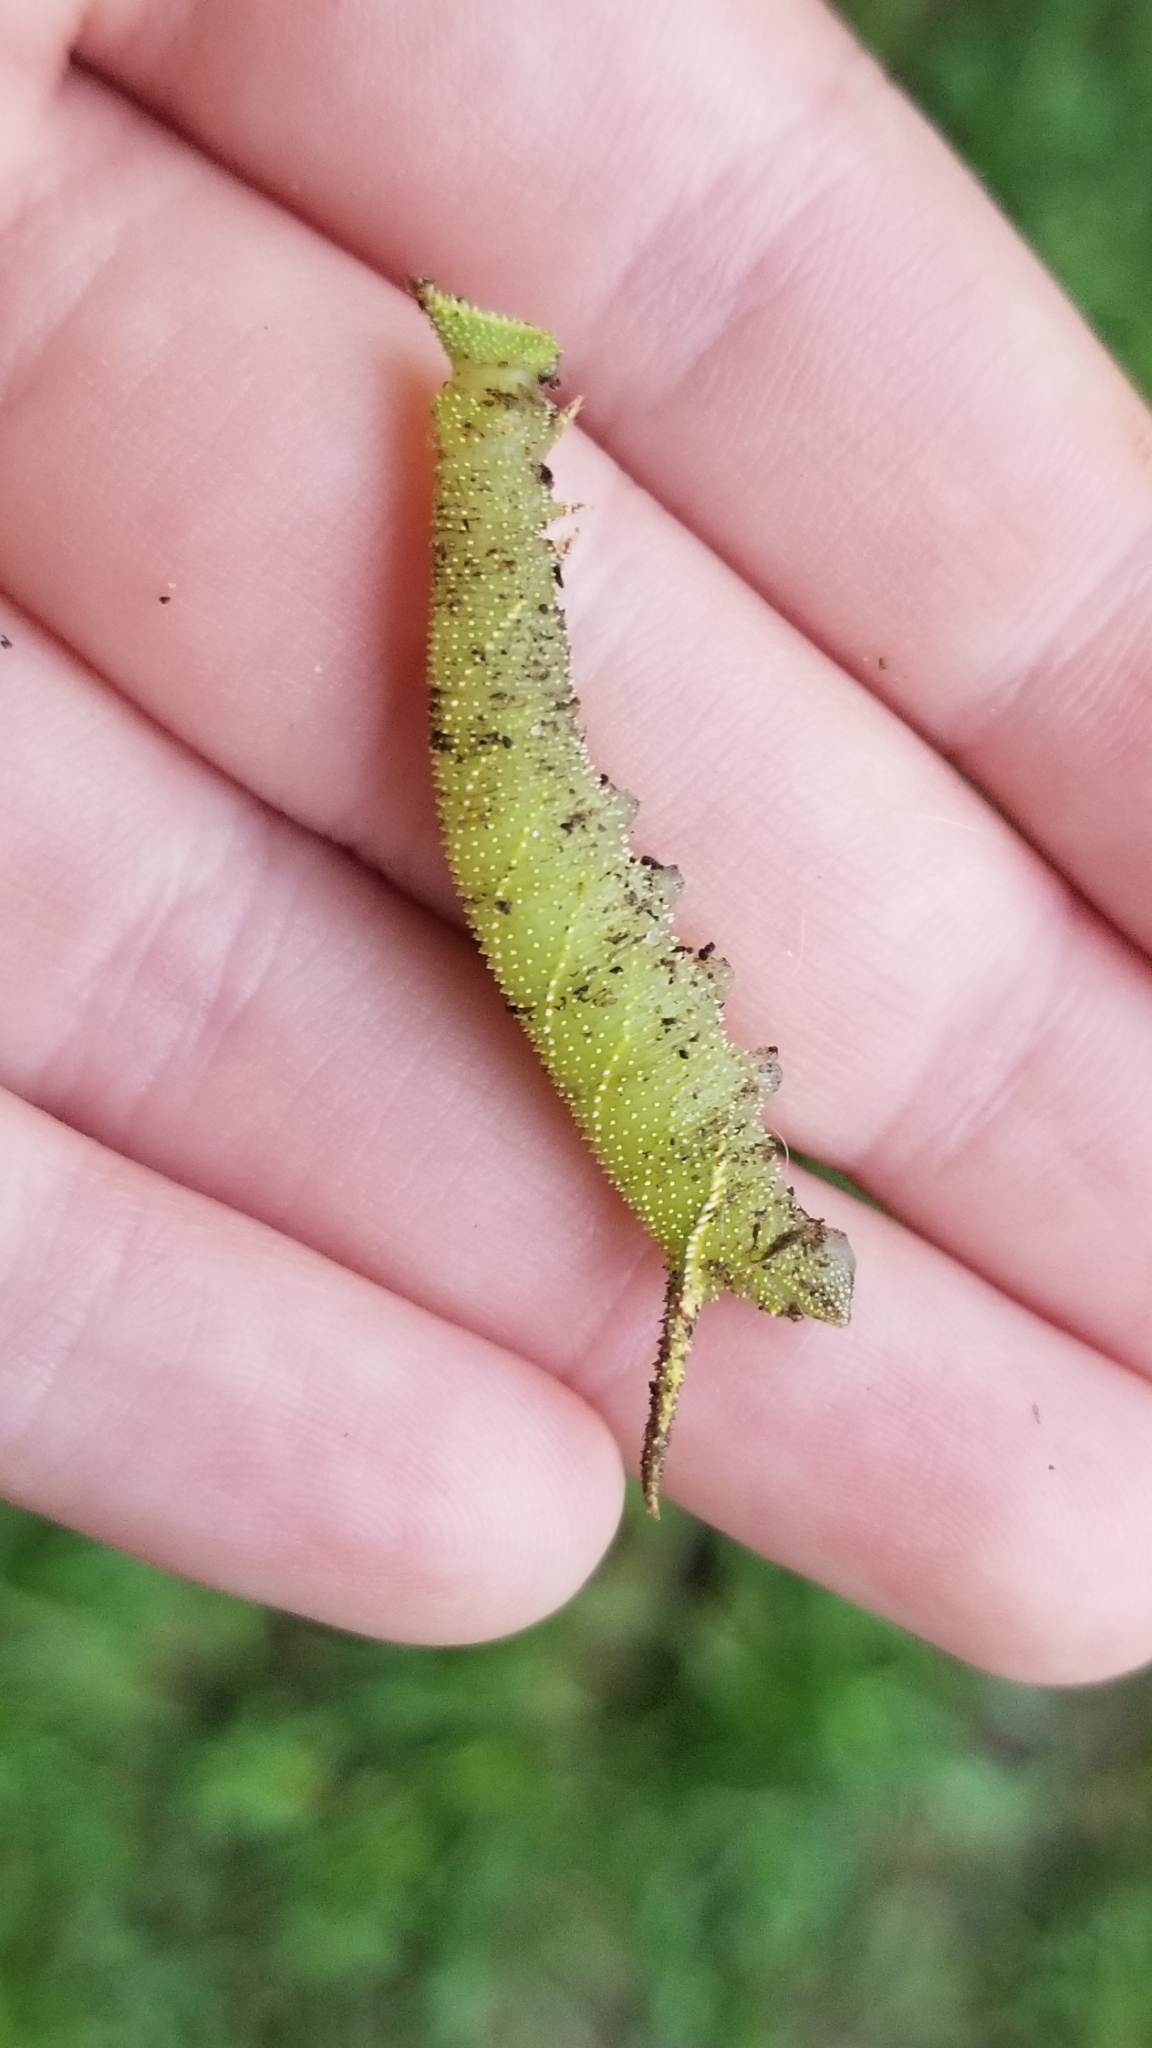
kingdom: Animalia
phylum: Arthropoda
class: Insecta
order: Lepidoptera
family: Sphingidae
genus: Amorpha
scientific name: Amorpha juglandis
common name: Walnut sphinx
